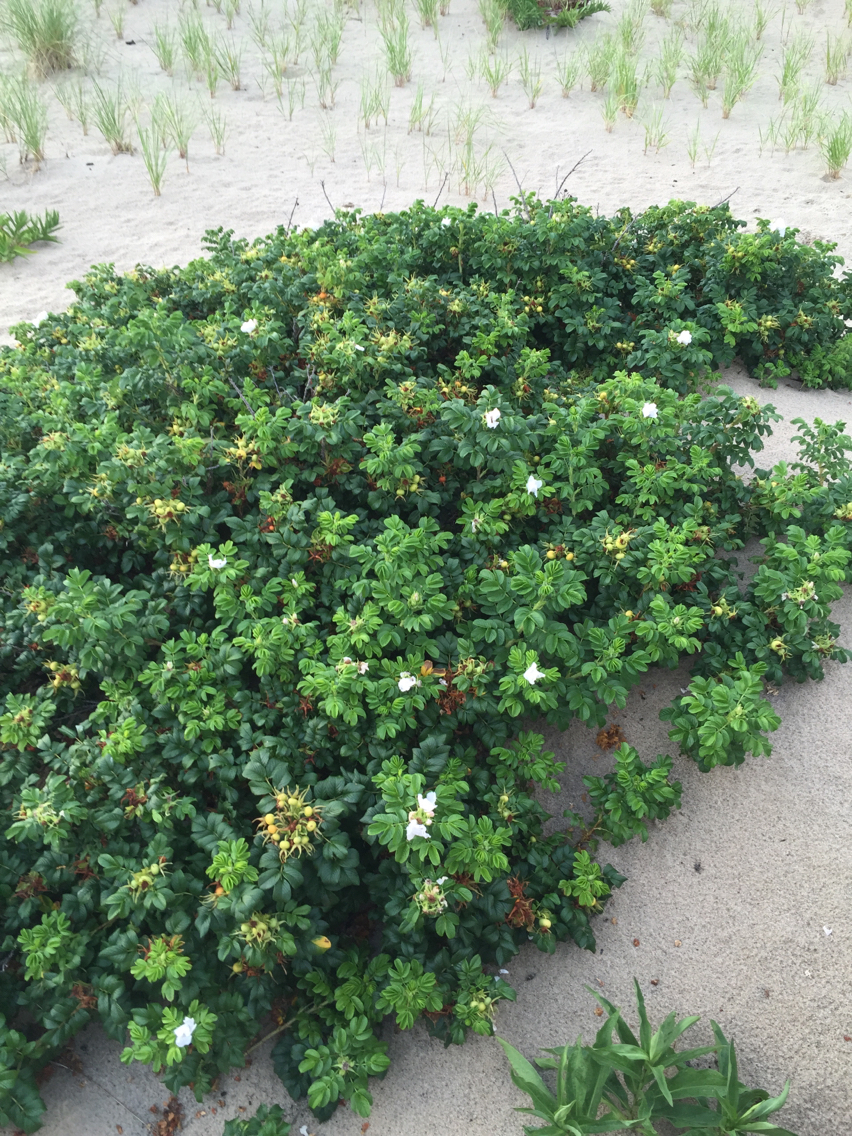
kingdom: Plantae
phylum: Tracheophyta
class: Magnoliopsida
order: Rosales
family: Rosaceae
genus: Rosa
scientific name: Rosa rugosa
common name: Japanese rose
